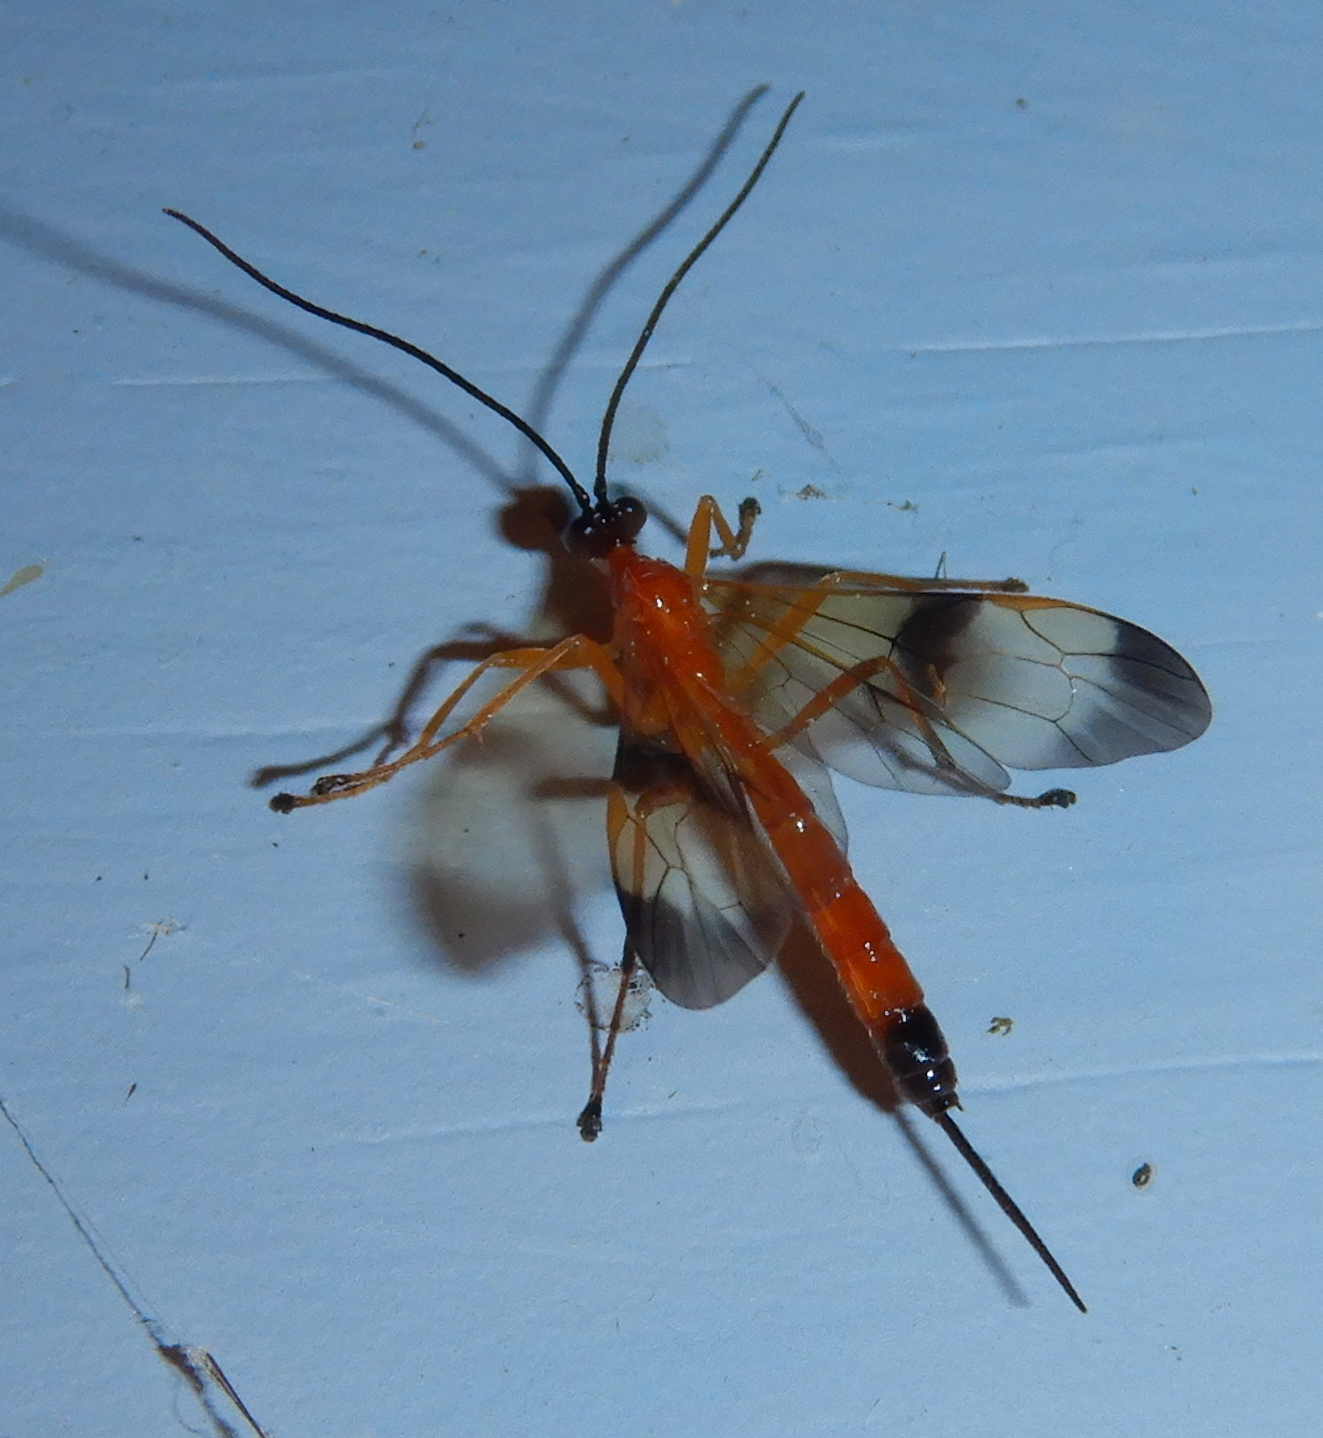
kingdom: Animalia
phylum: Arthropoda
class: Insecta
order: Hymenoptera
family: Ichneumonidae
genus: Acrotaphus
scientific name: Acrotaphus wiltii
